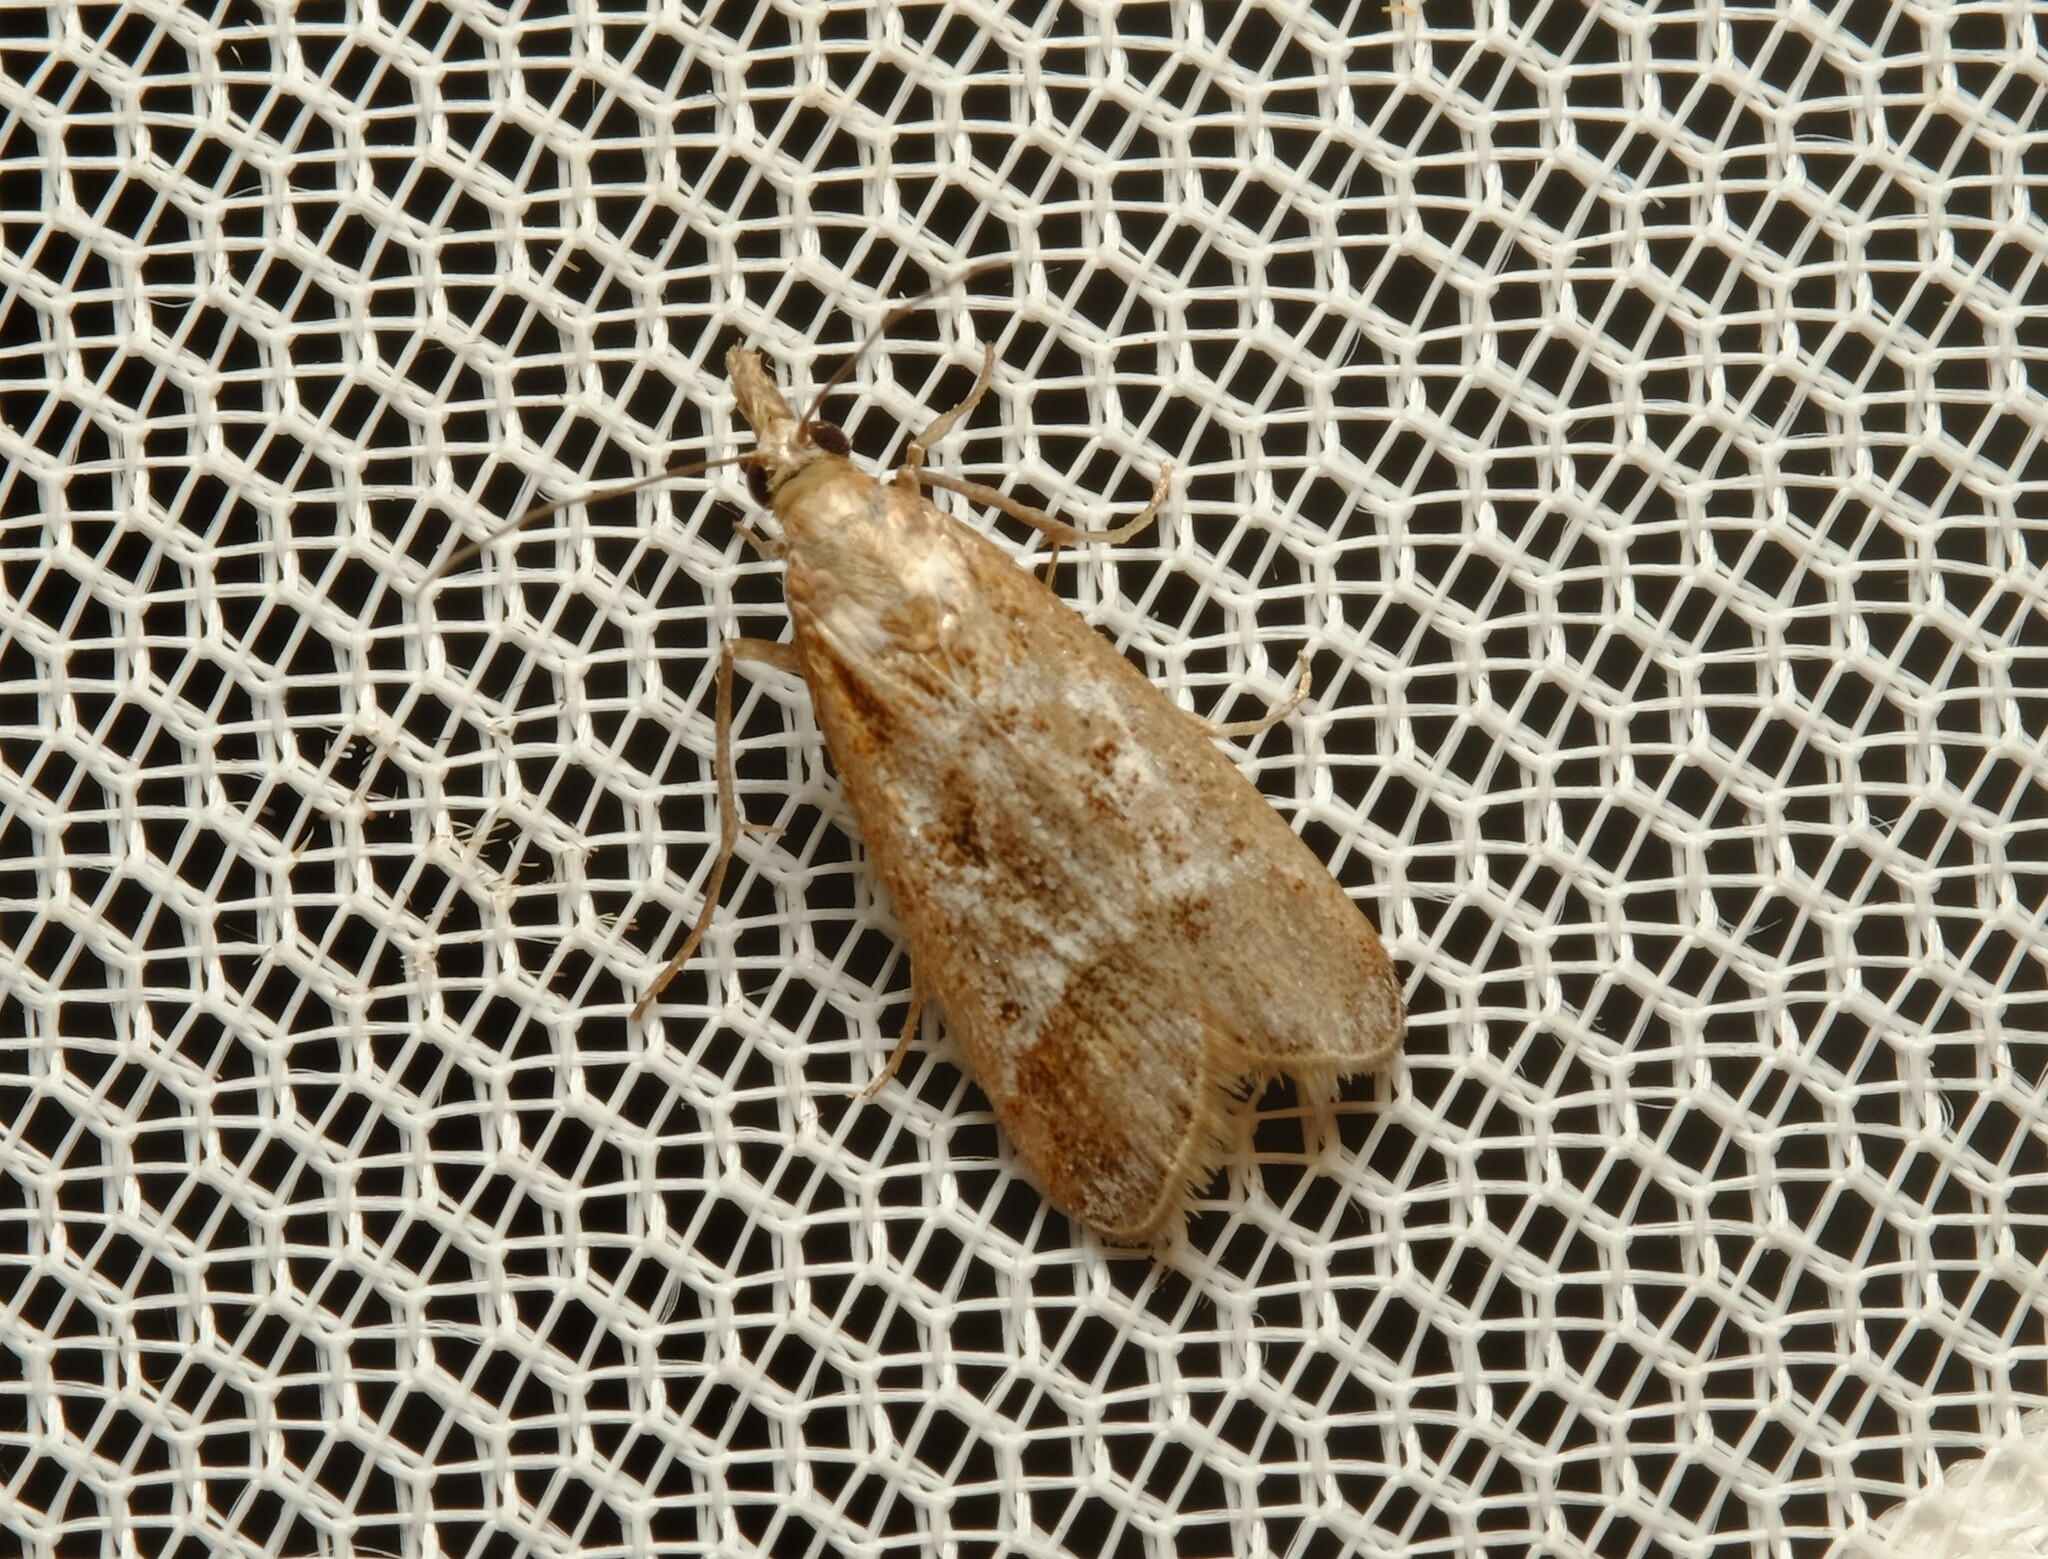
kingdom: Animalia
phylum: Arthropoda
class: Insecta
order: Lepidoptera
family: Crambidae
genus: Syntonarcha
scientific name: Syntonarcha iriastis
